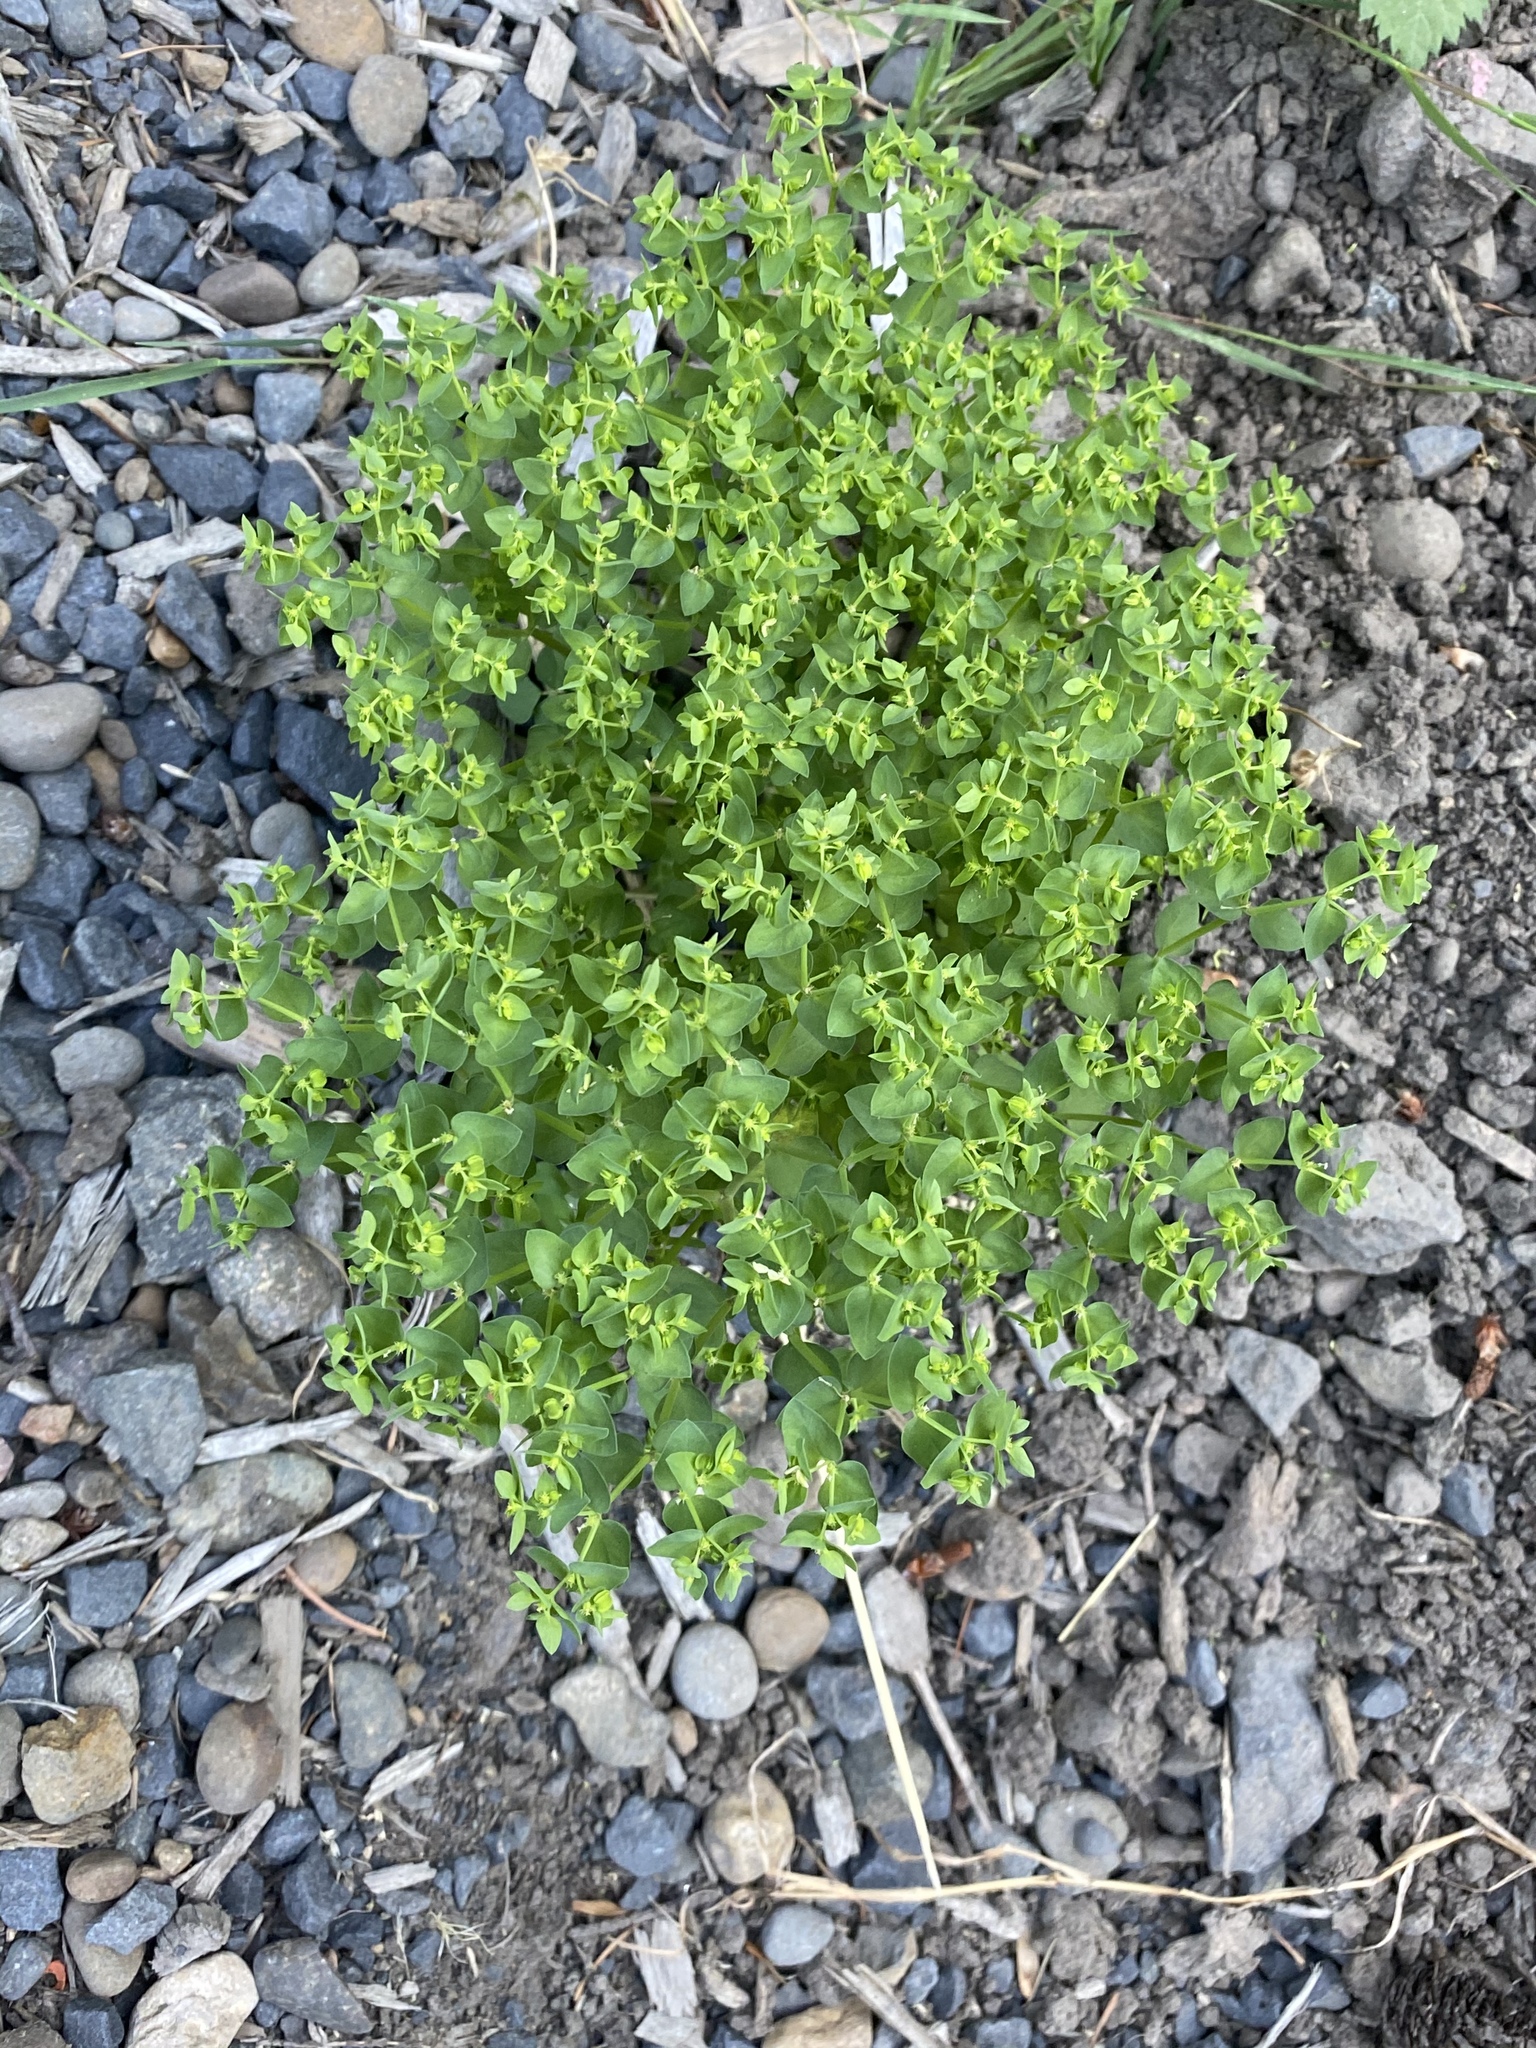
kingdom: Plantae
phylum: Tracheophyta
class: Magnoliopsida
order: Malpighiales
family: Euphorbiaceae
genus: Euphorbia
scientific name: Euphorbia peplus
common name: Petty spurge
